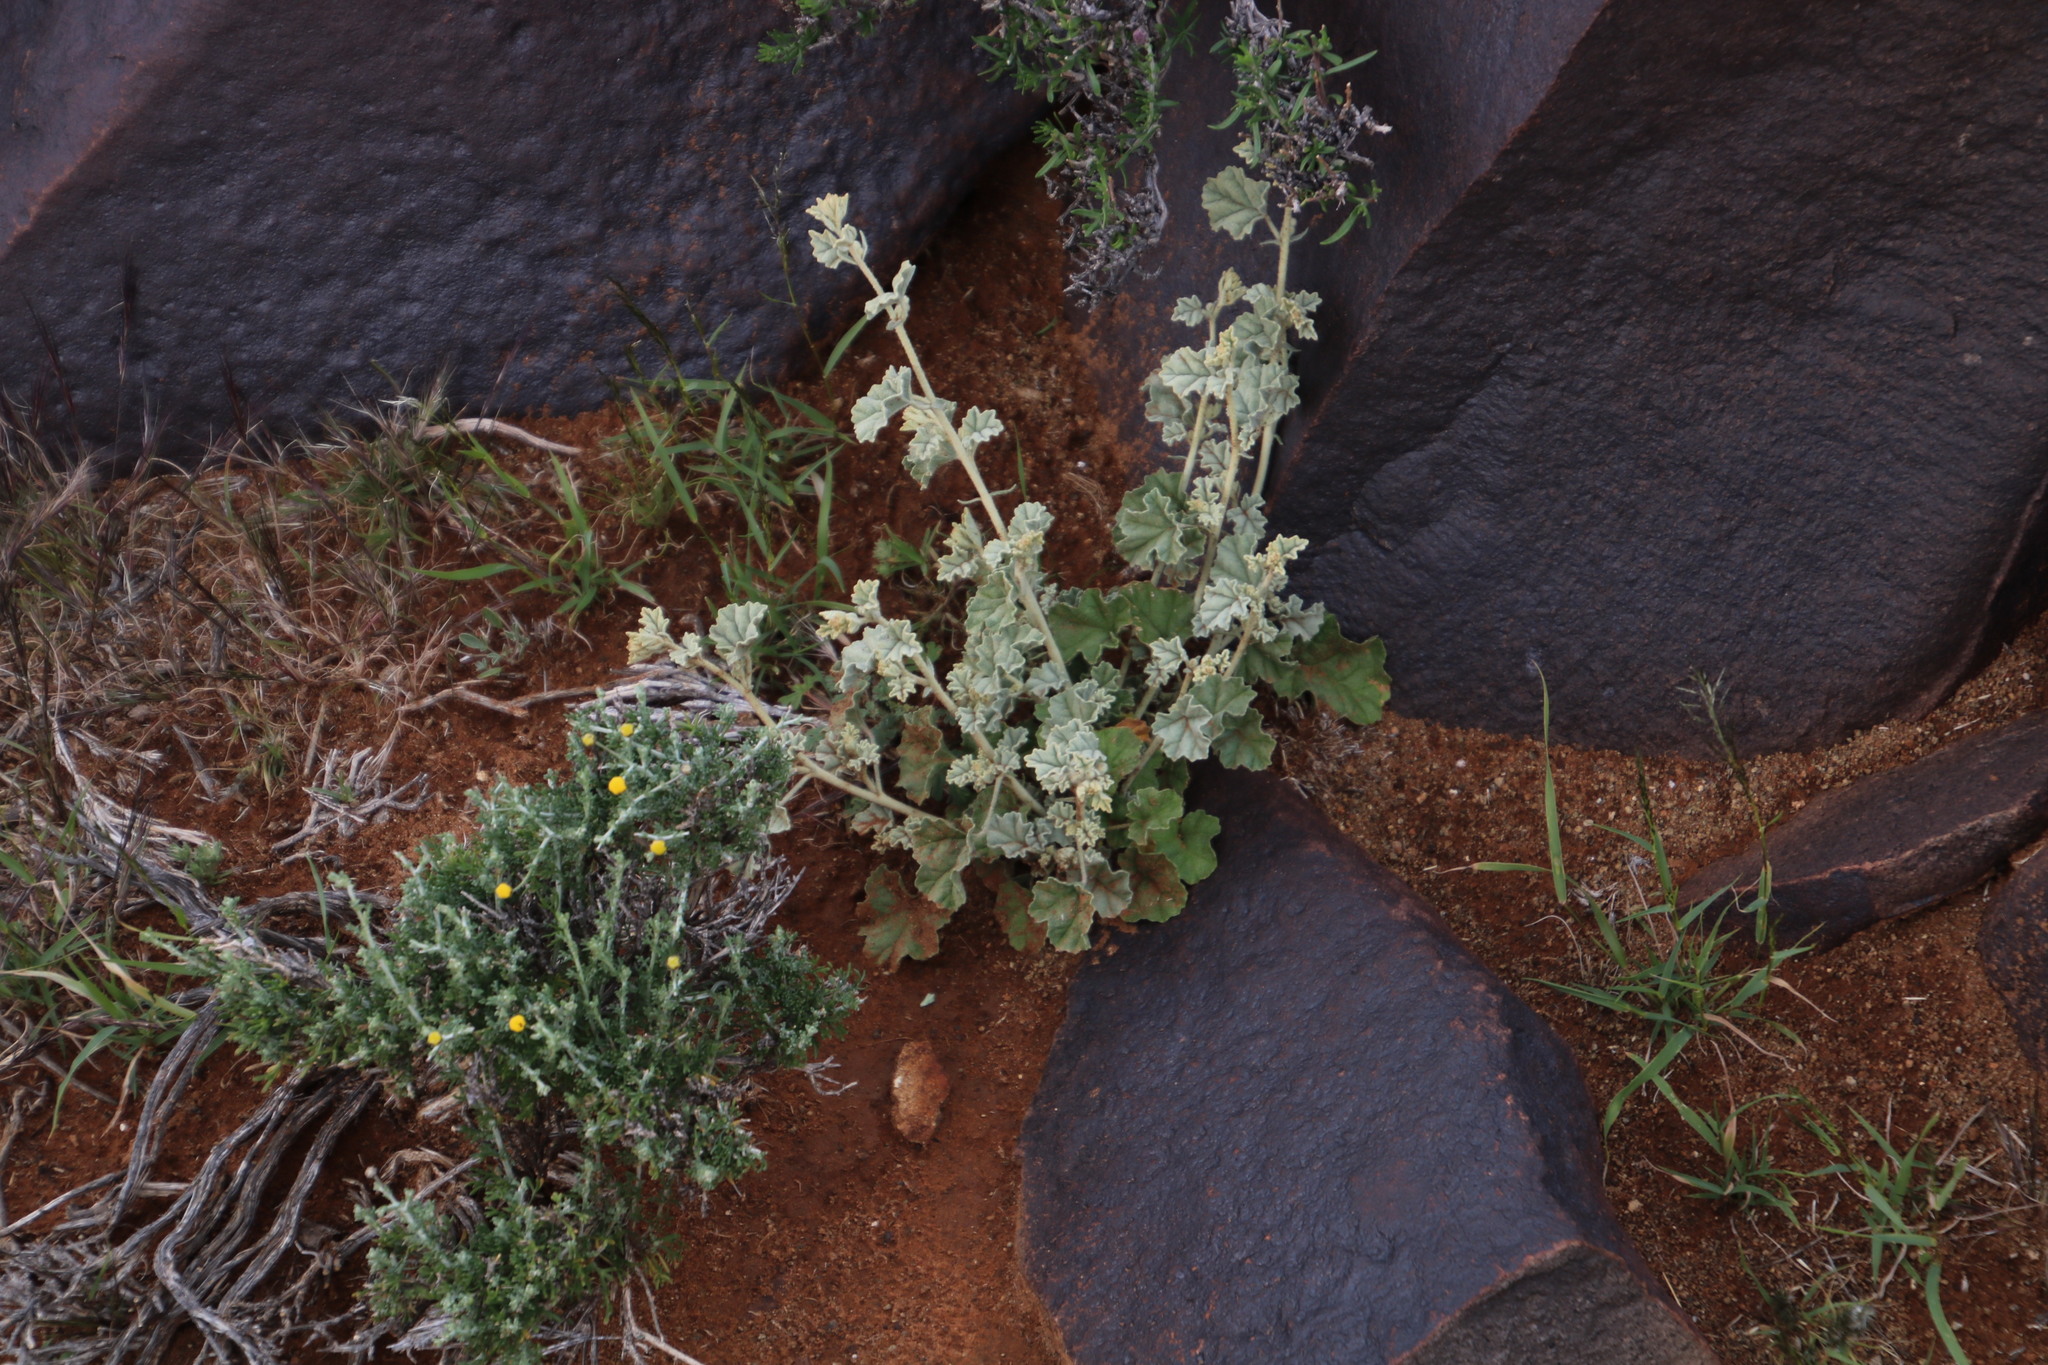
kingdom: Plantae
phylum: Tracheophyta
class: Magnoliopsida
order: Malvales
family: Malvaceae
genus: Hermannia
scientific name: Hermannia vestita
